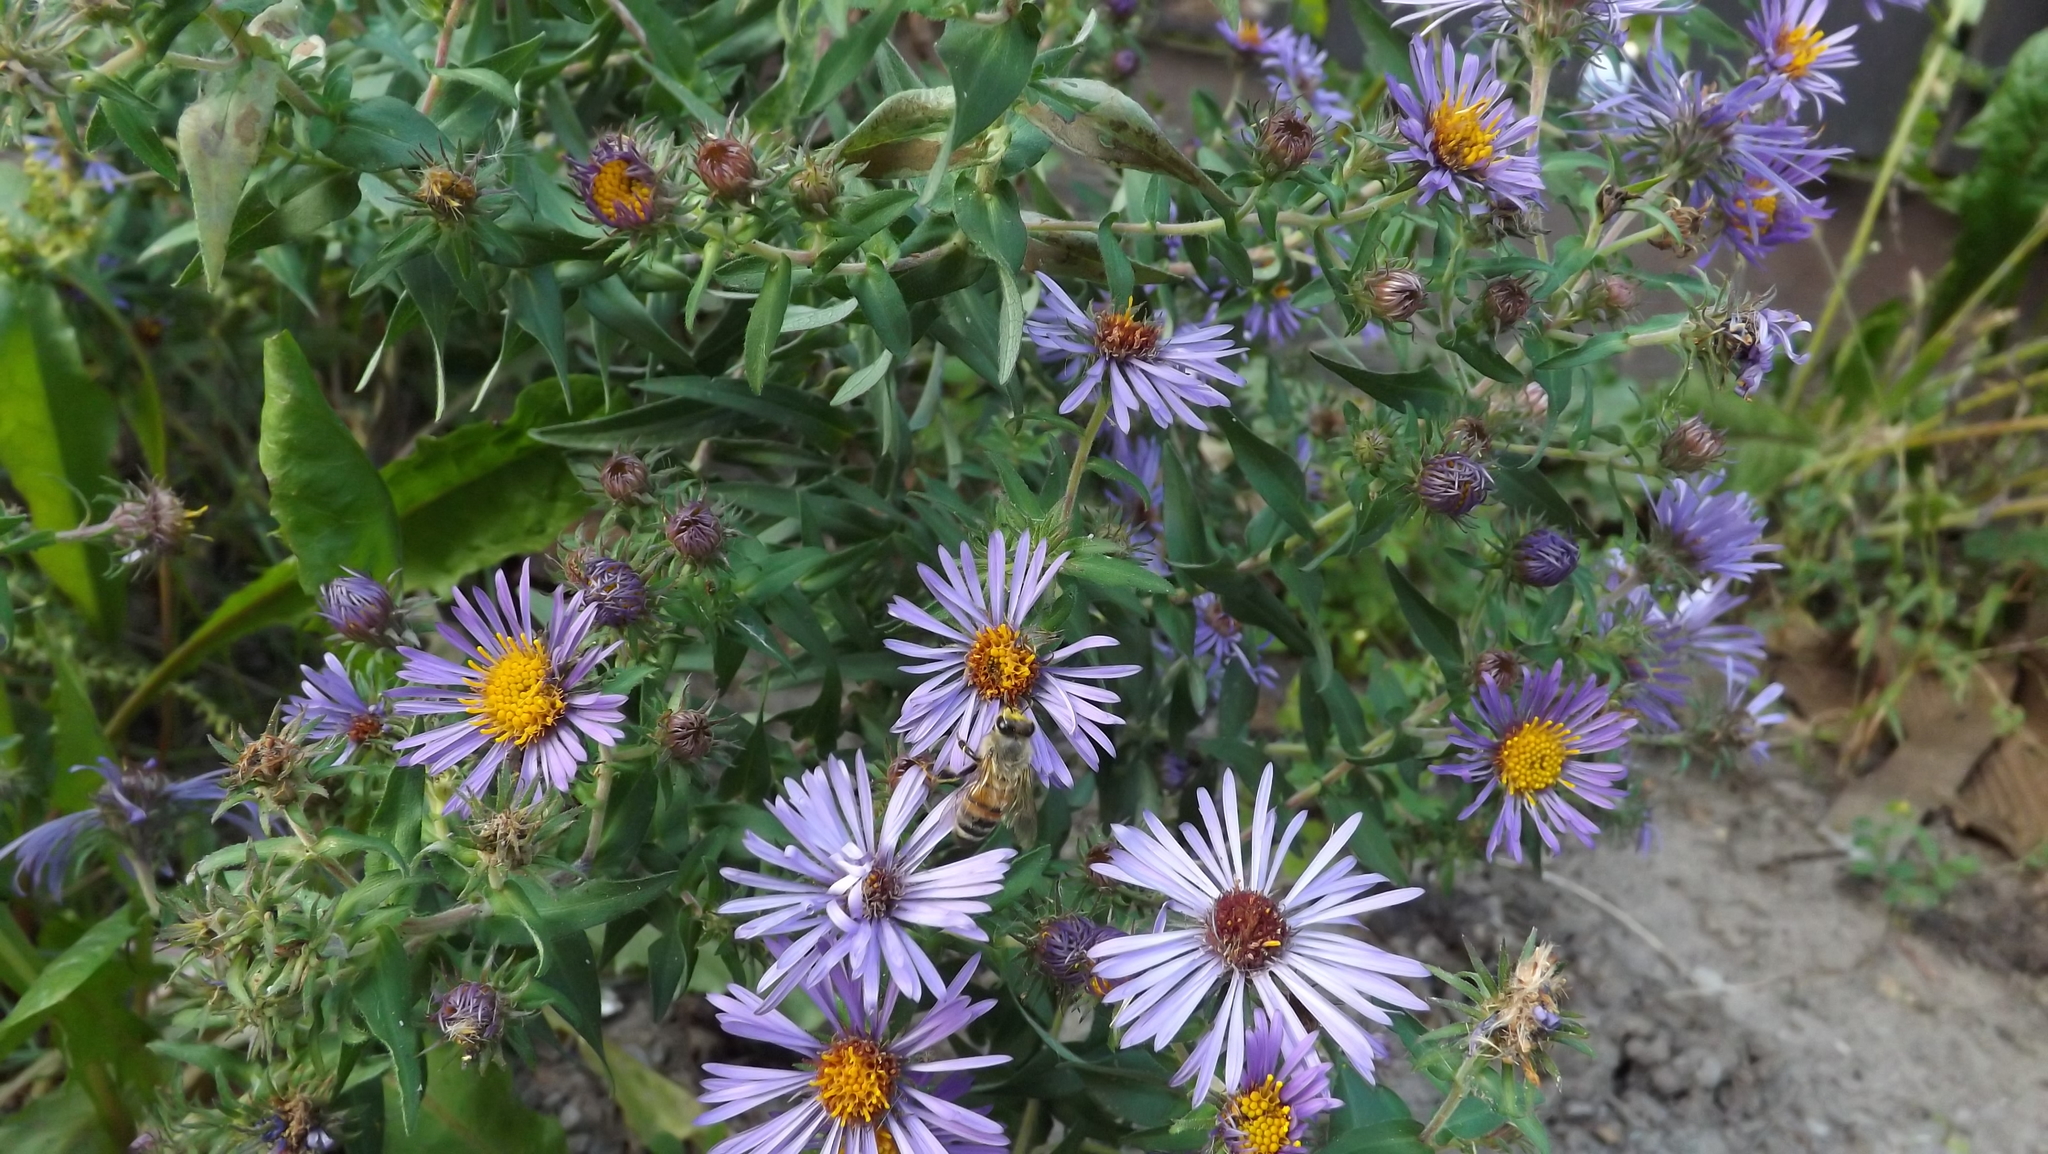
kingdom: Animalia
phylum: Arthropoda
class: Insecta
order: Hymenoptera
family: Apidae
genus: Apis
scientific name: Apis mellifera
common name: Honey bee
